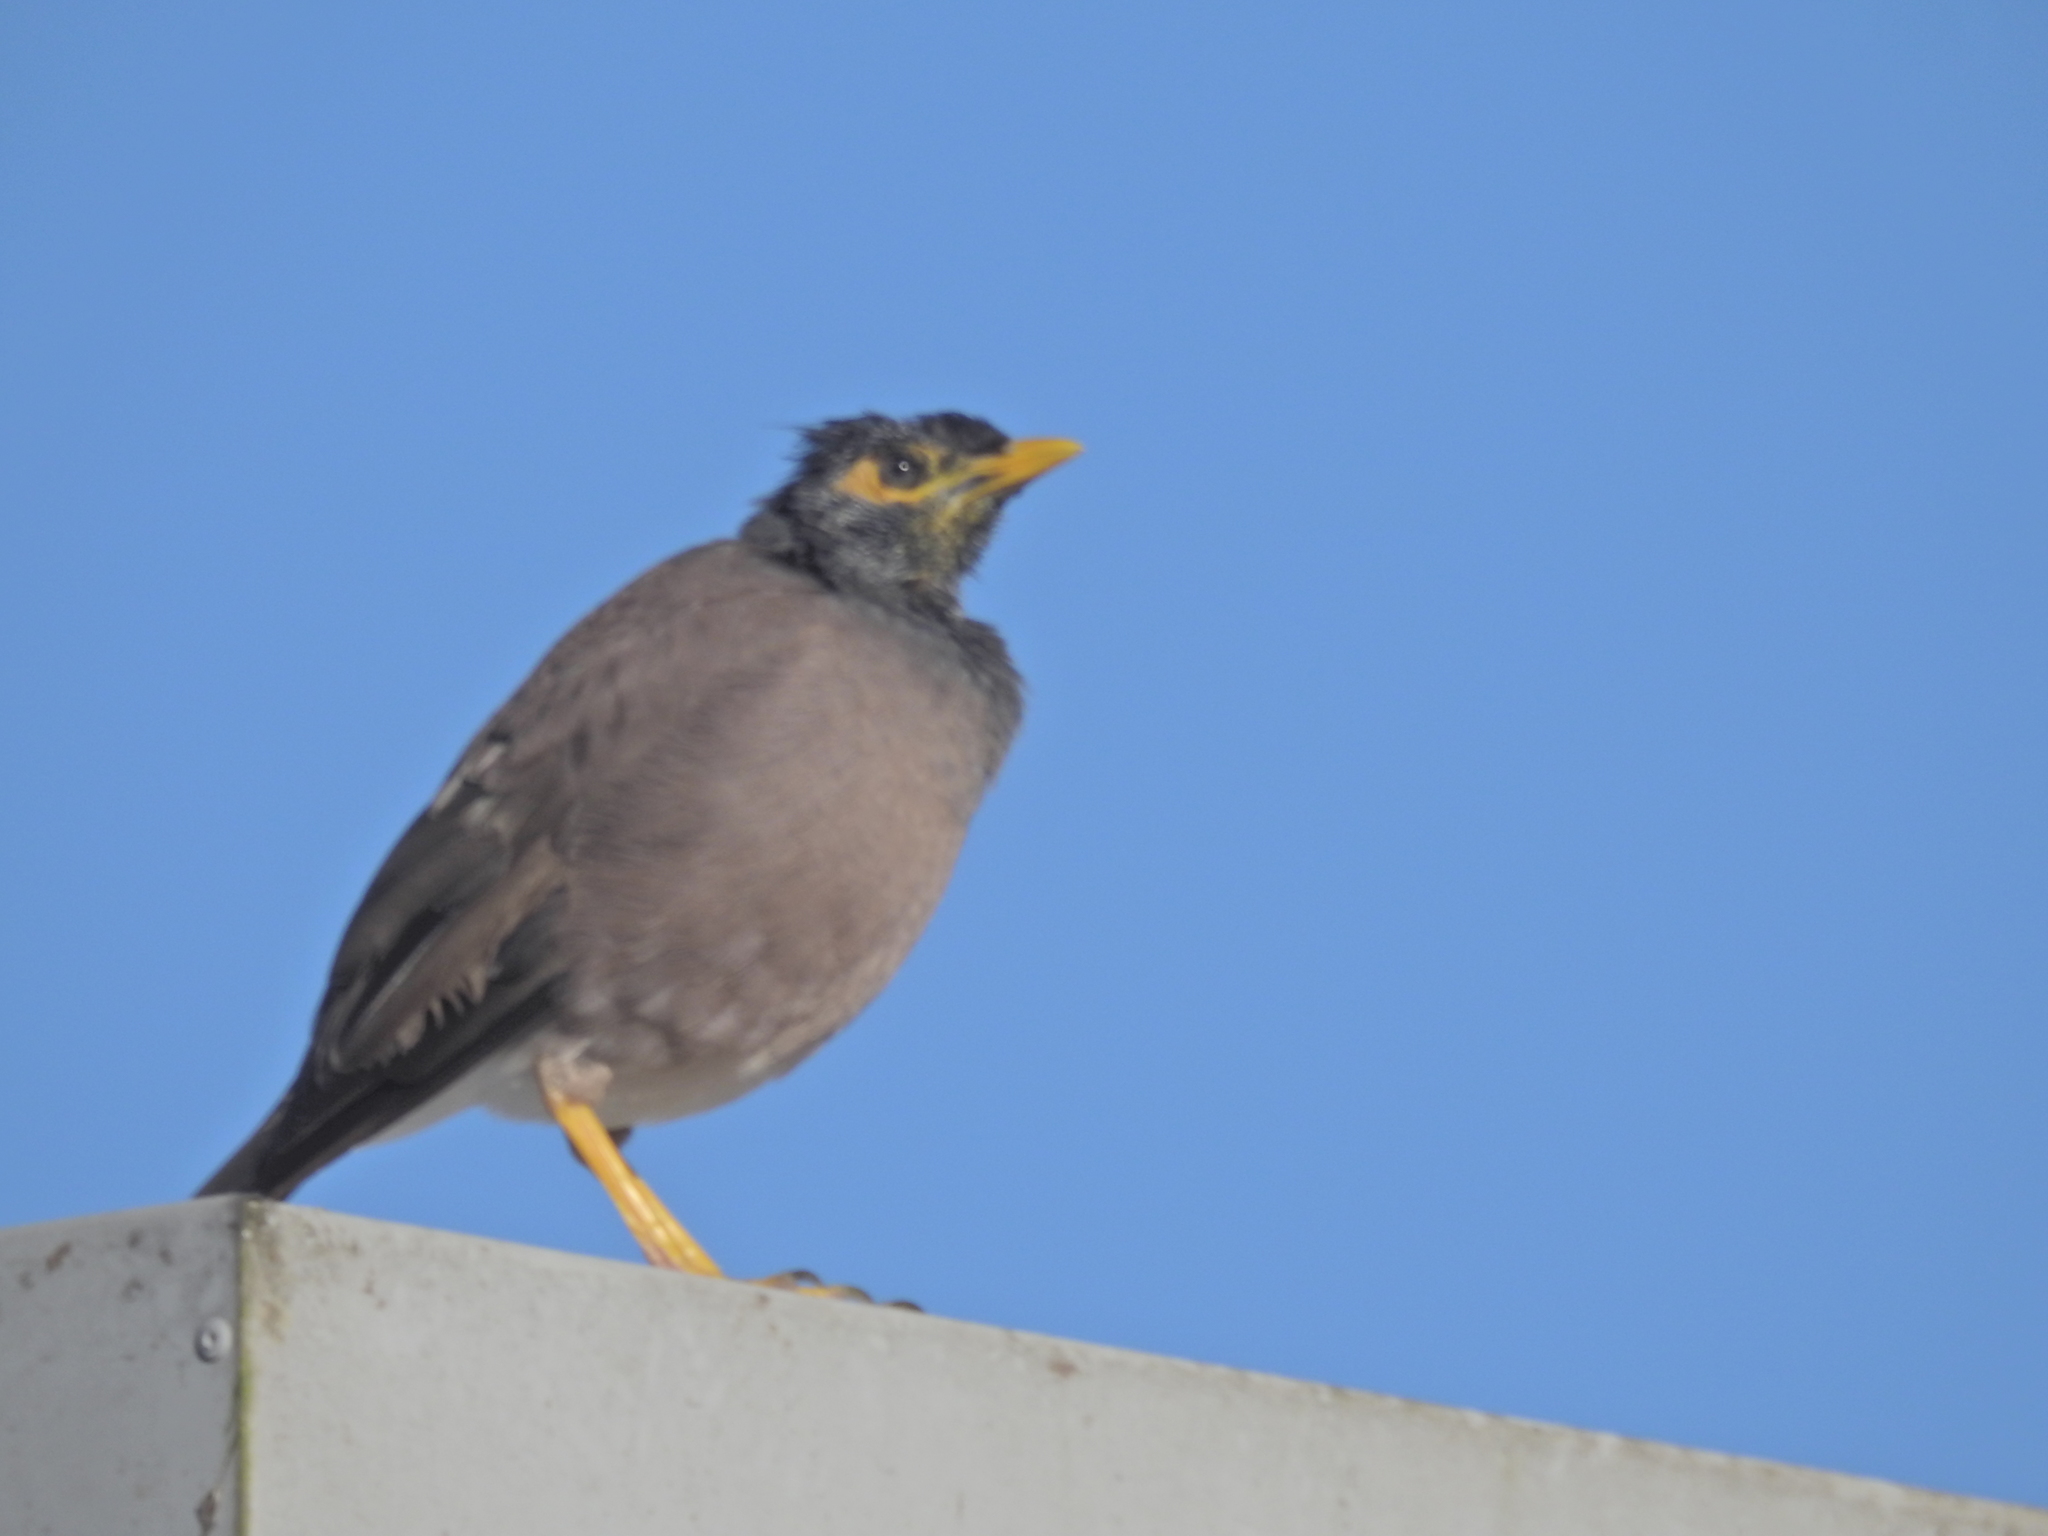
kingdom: Animalia
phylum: Chordata
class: Aves
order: Passeriformes
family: Sturnidae
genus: Acridotheres
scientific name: Acridotheres tristis
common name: Common myna
